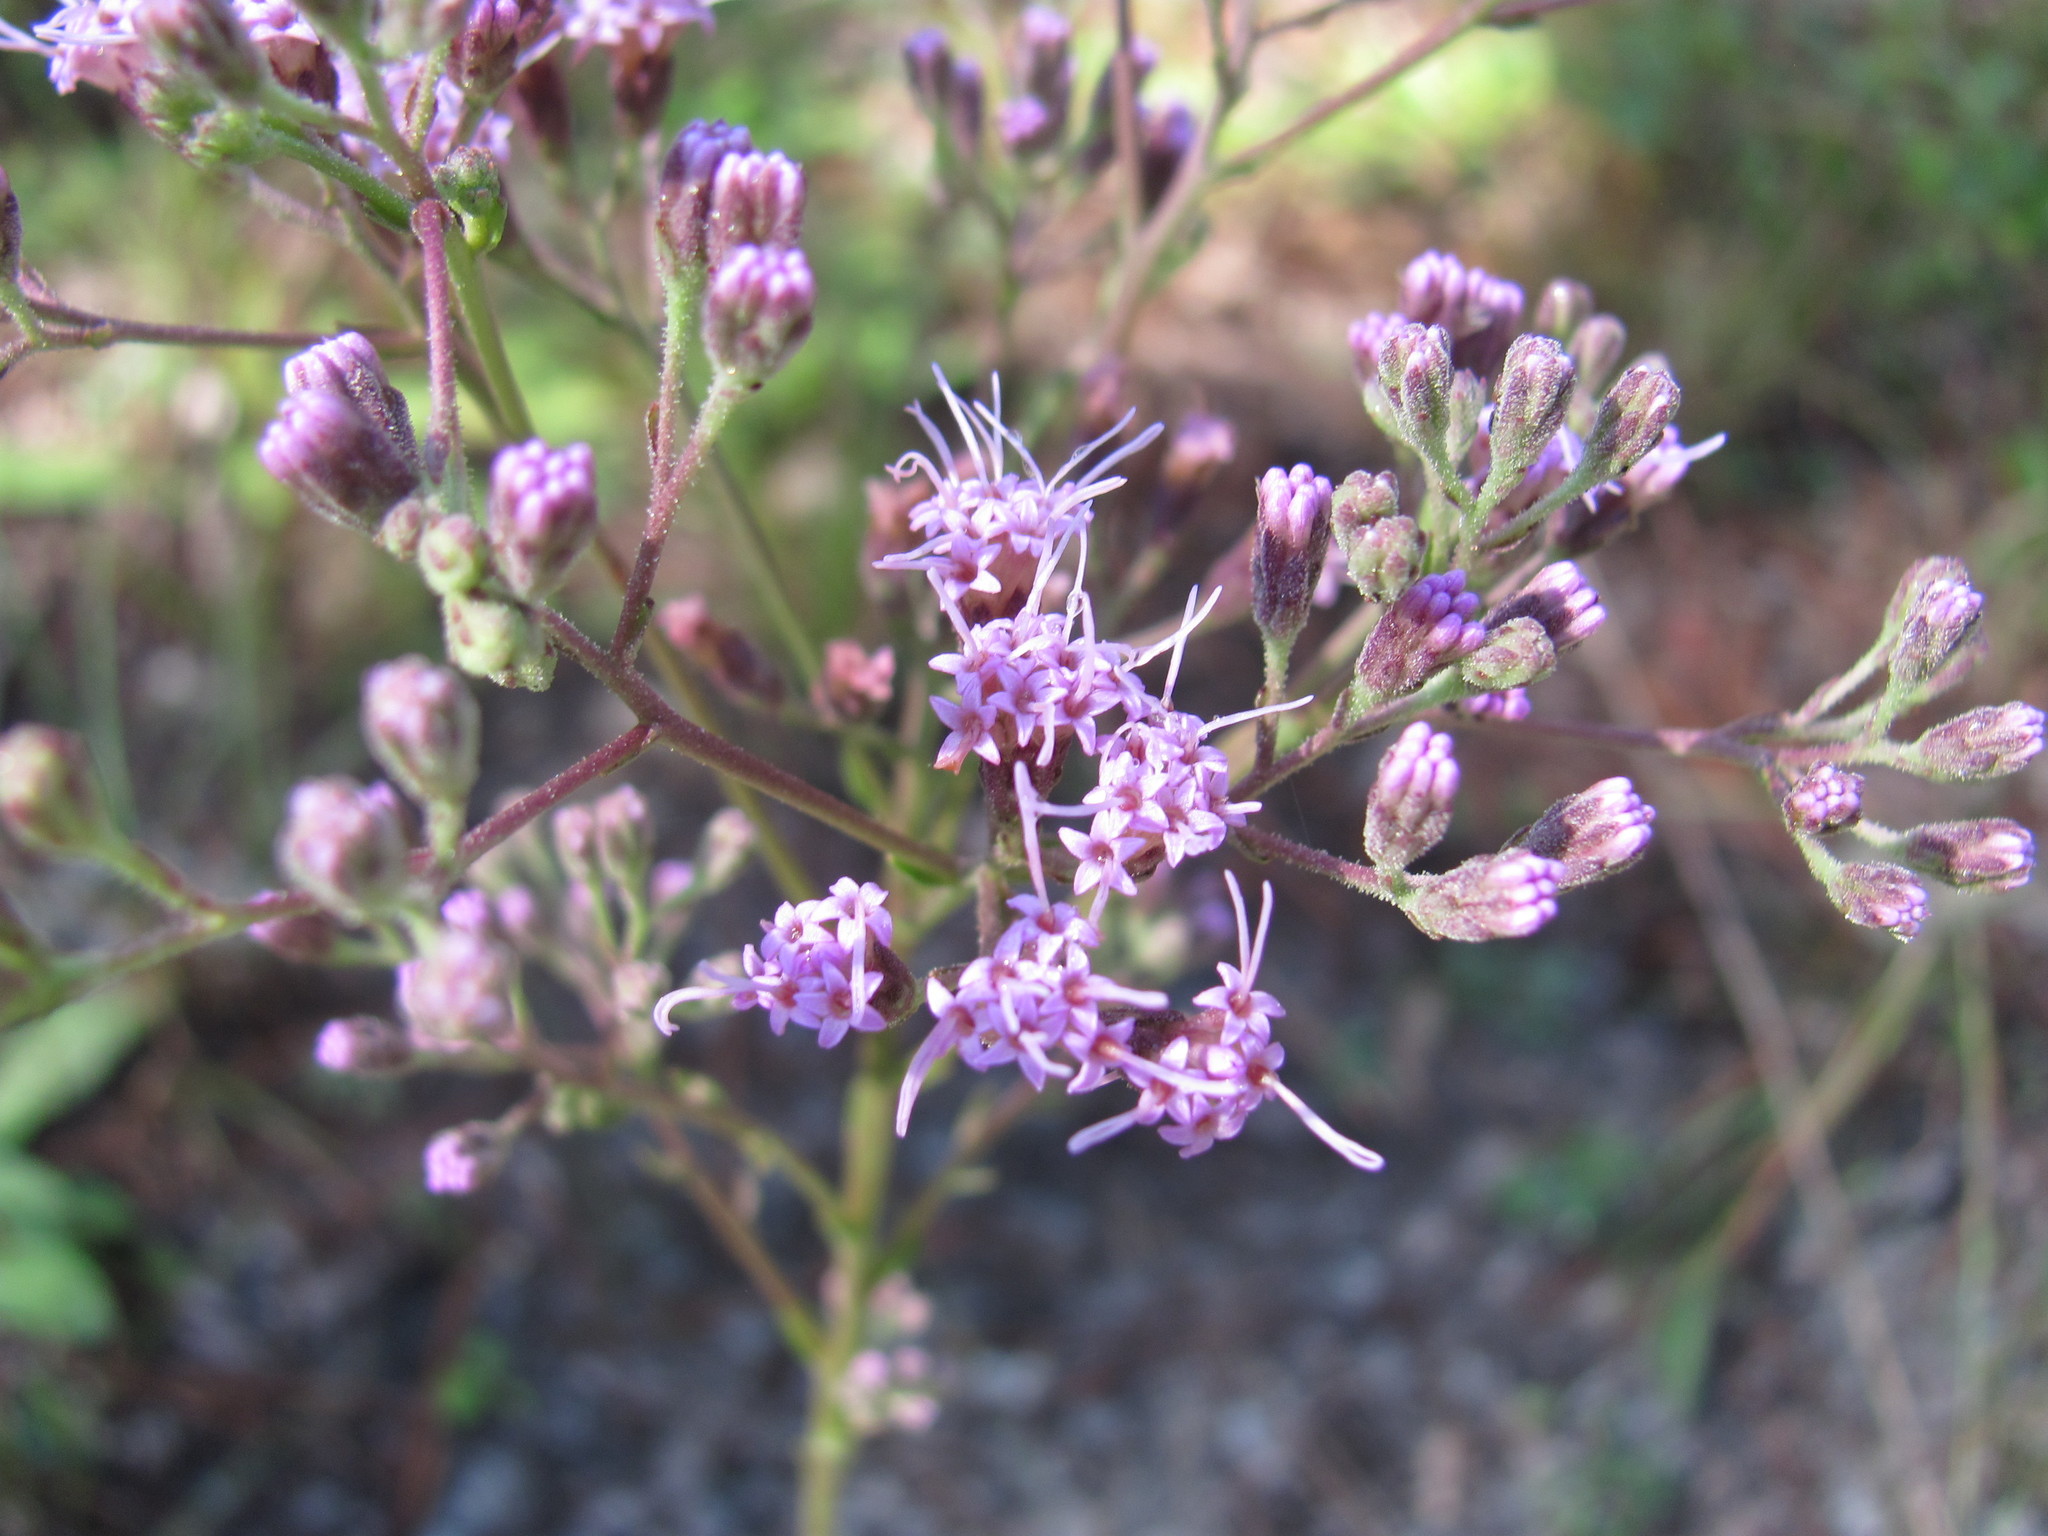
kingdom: Plantae
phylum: Tracheophyta
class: Magnoliopsida
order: Asterales
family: Asteraceae
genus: Carphephorus
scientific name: Carphephorus odoratissimus
